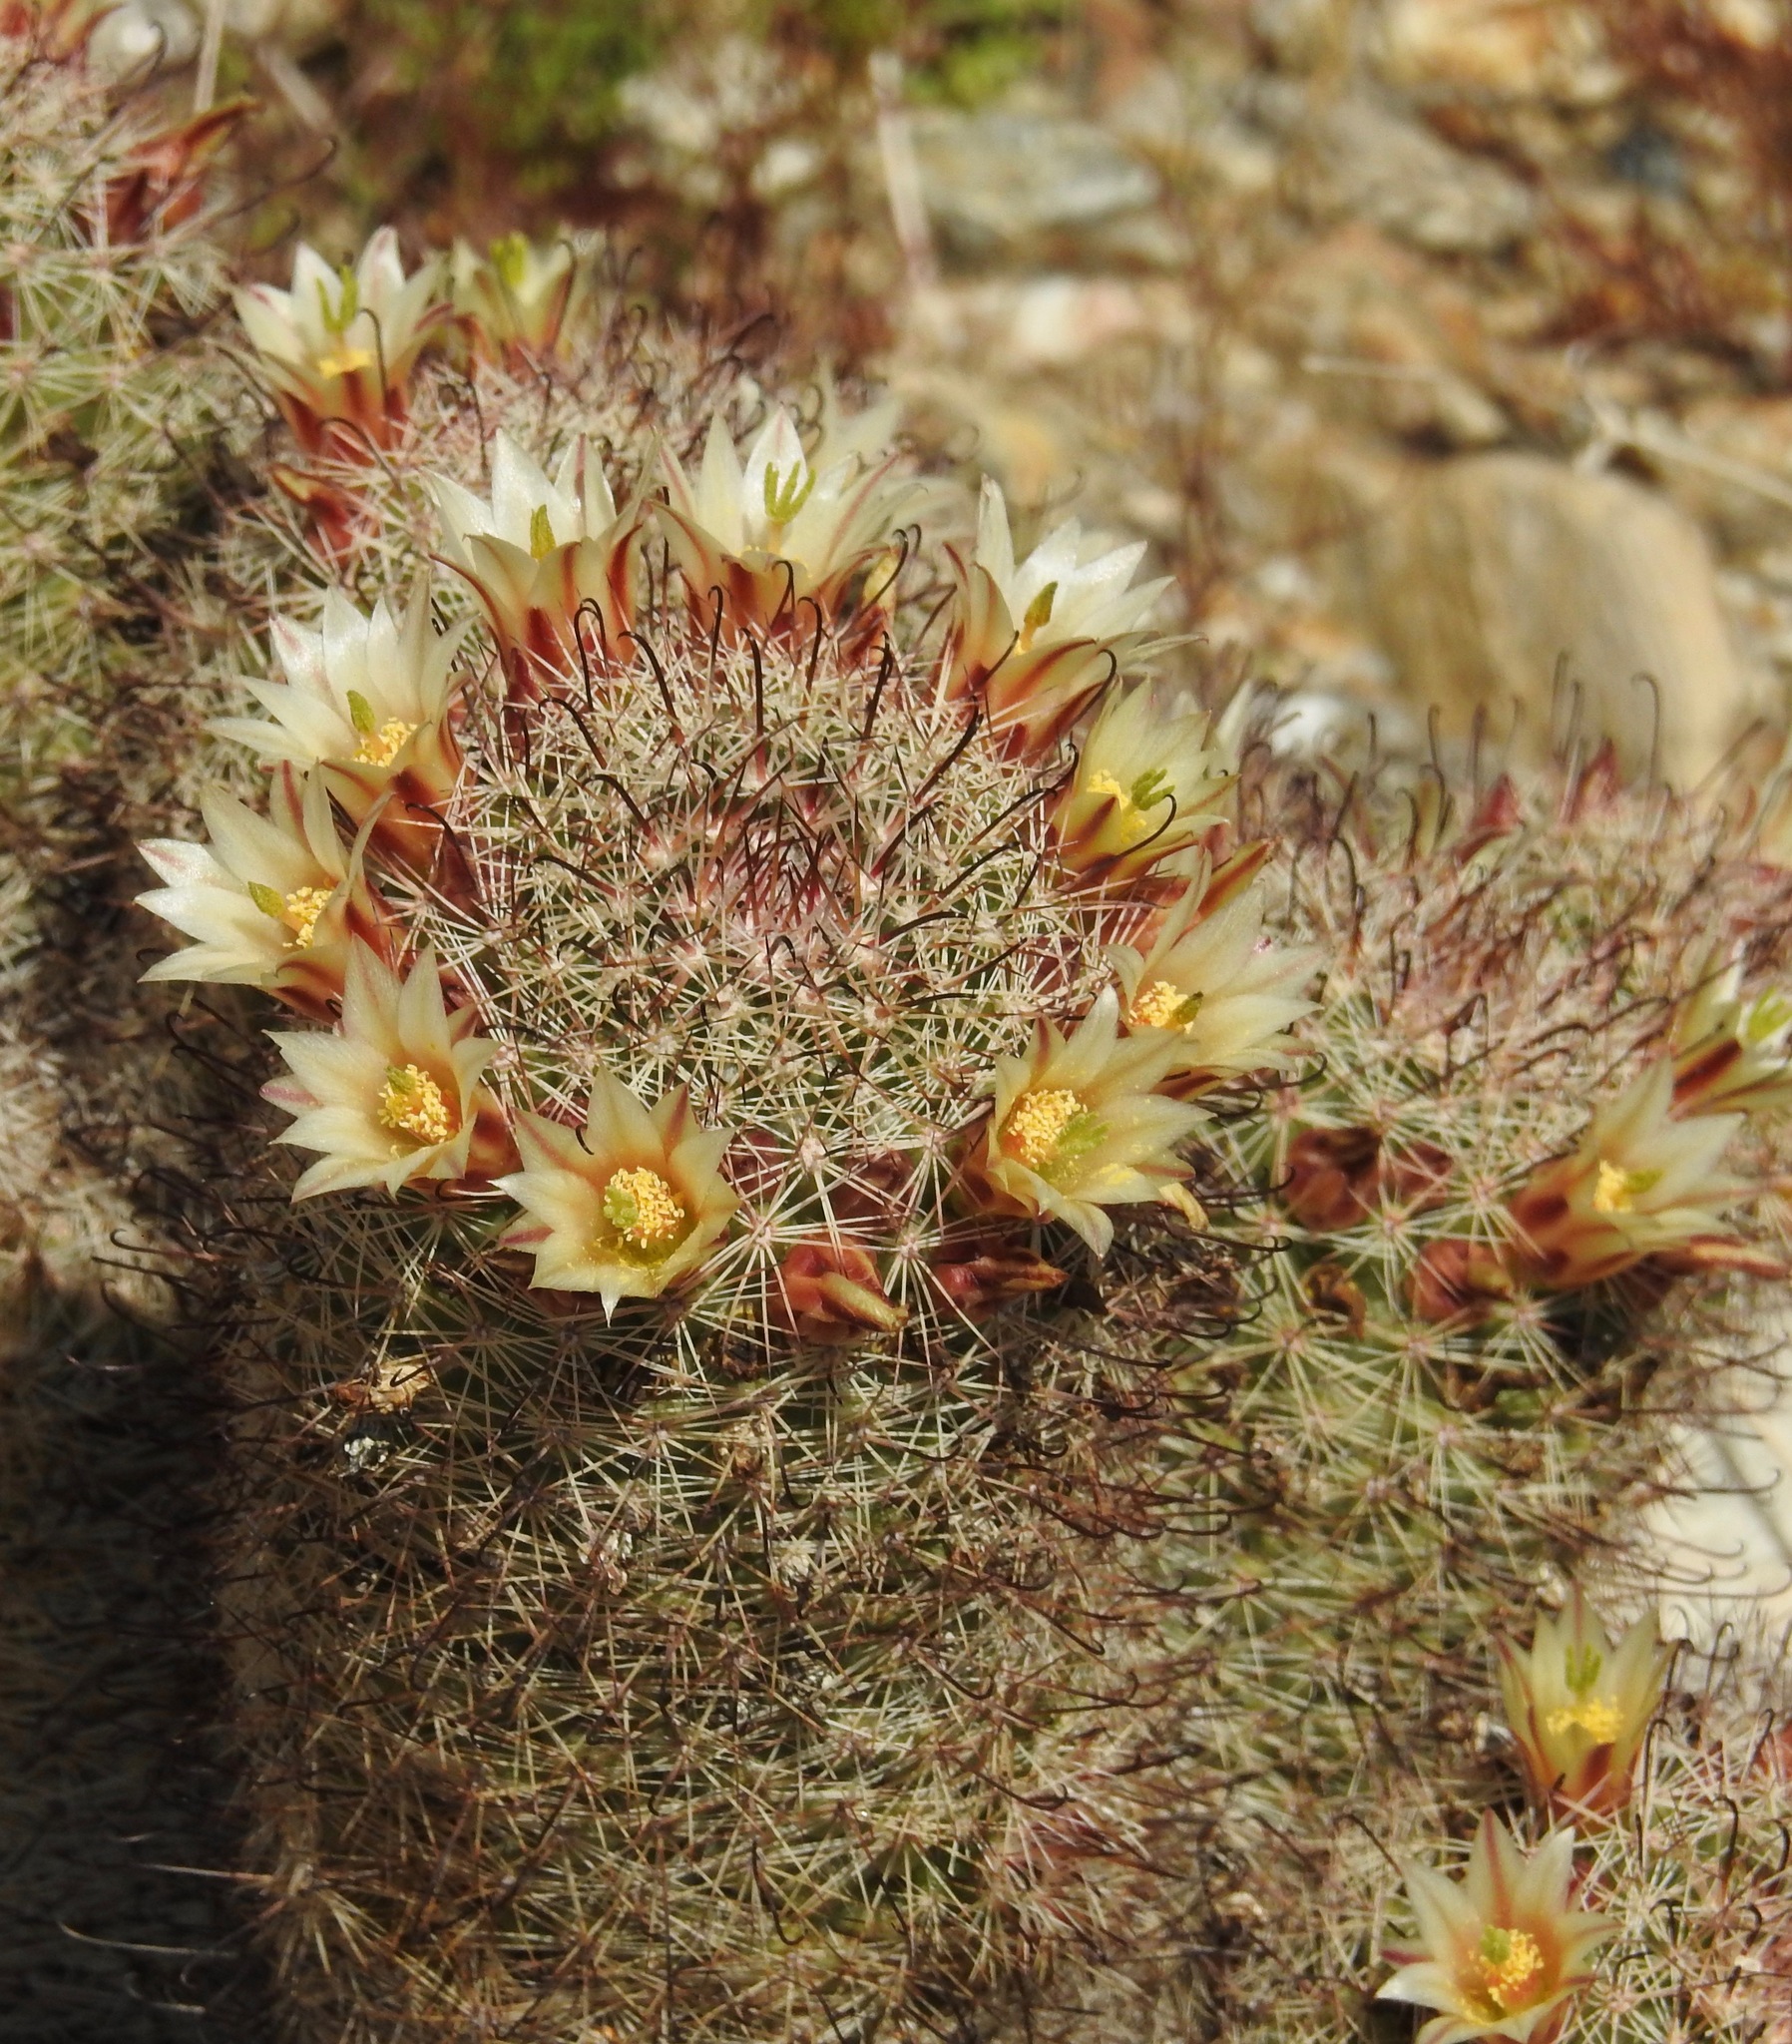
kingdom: Plantae
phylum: Tracheophyta
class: Magnoliopsida
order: Caryophyllales
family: Cactaceae
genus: Cochemiea
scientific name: Cochemiea dioica
